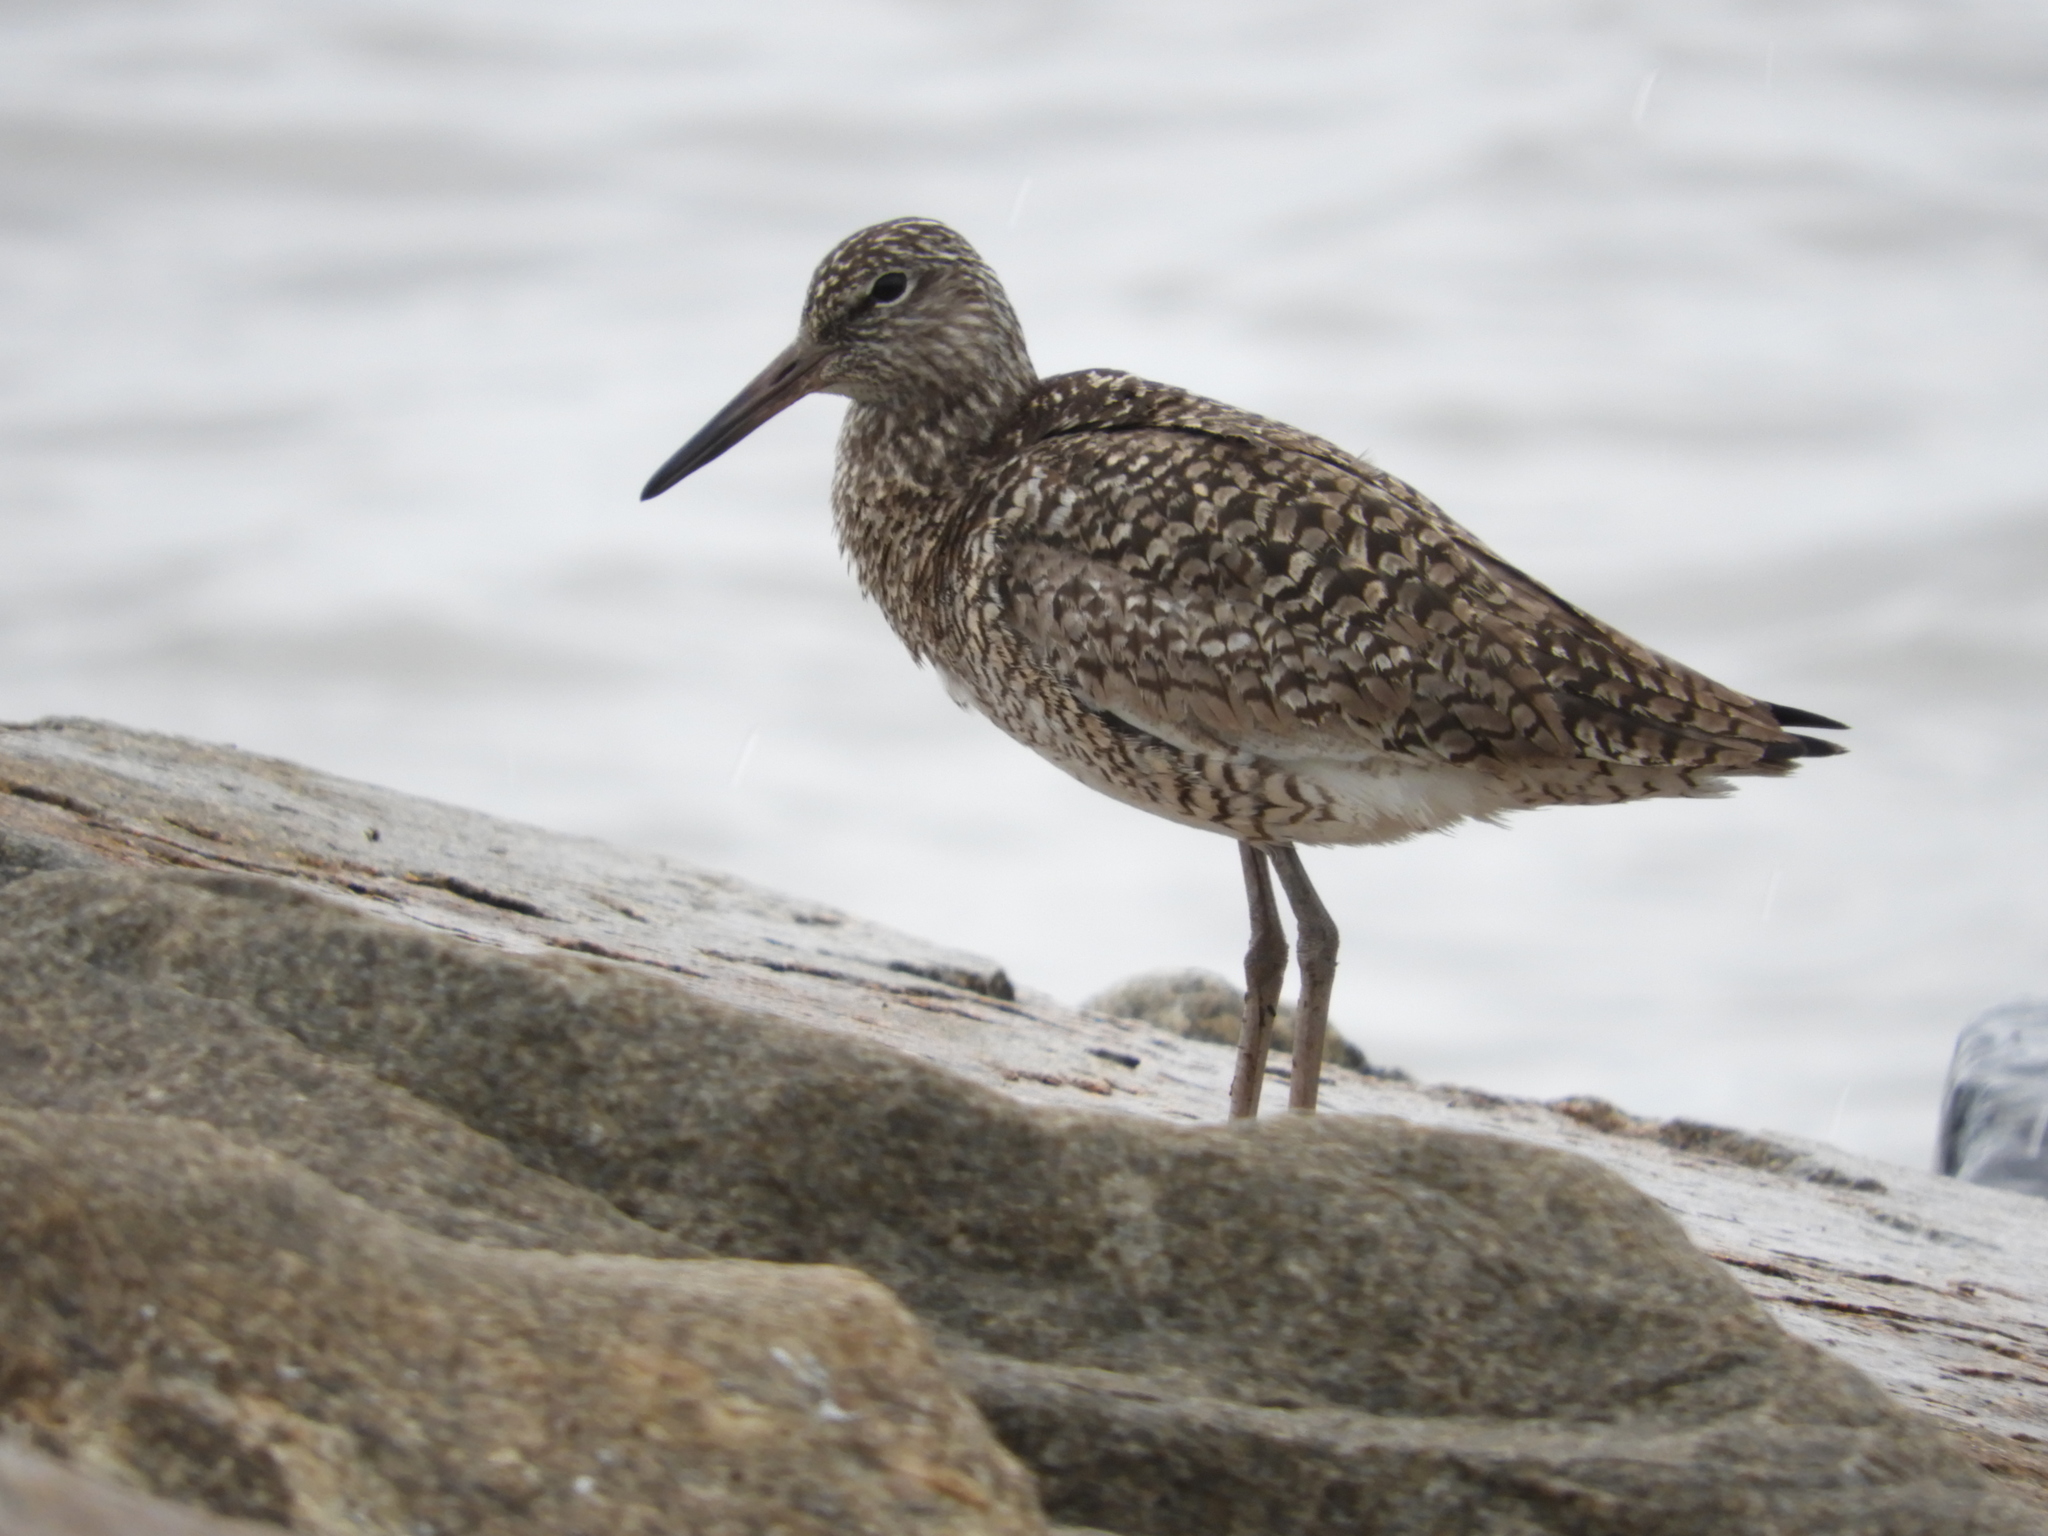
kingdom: Animalia
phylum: Chordata
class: Aves
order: Charadriiformes
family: Scolopacidae
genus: Tringa
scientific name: Tringa semipalmata
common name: Willet
